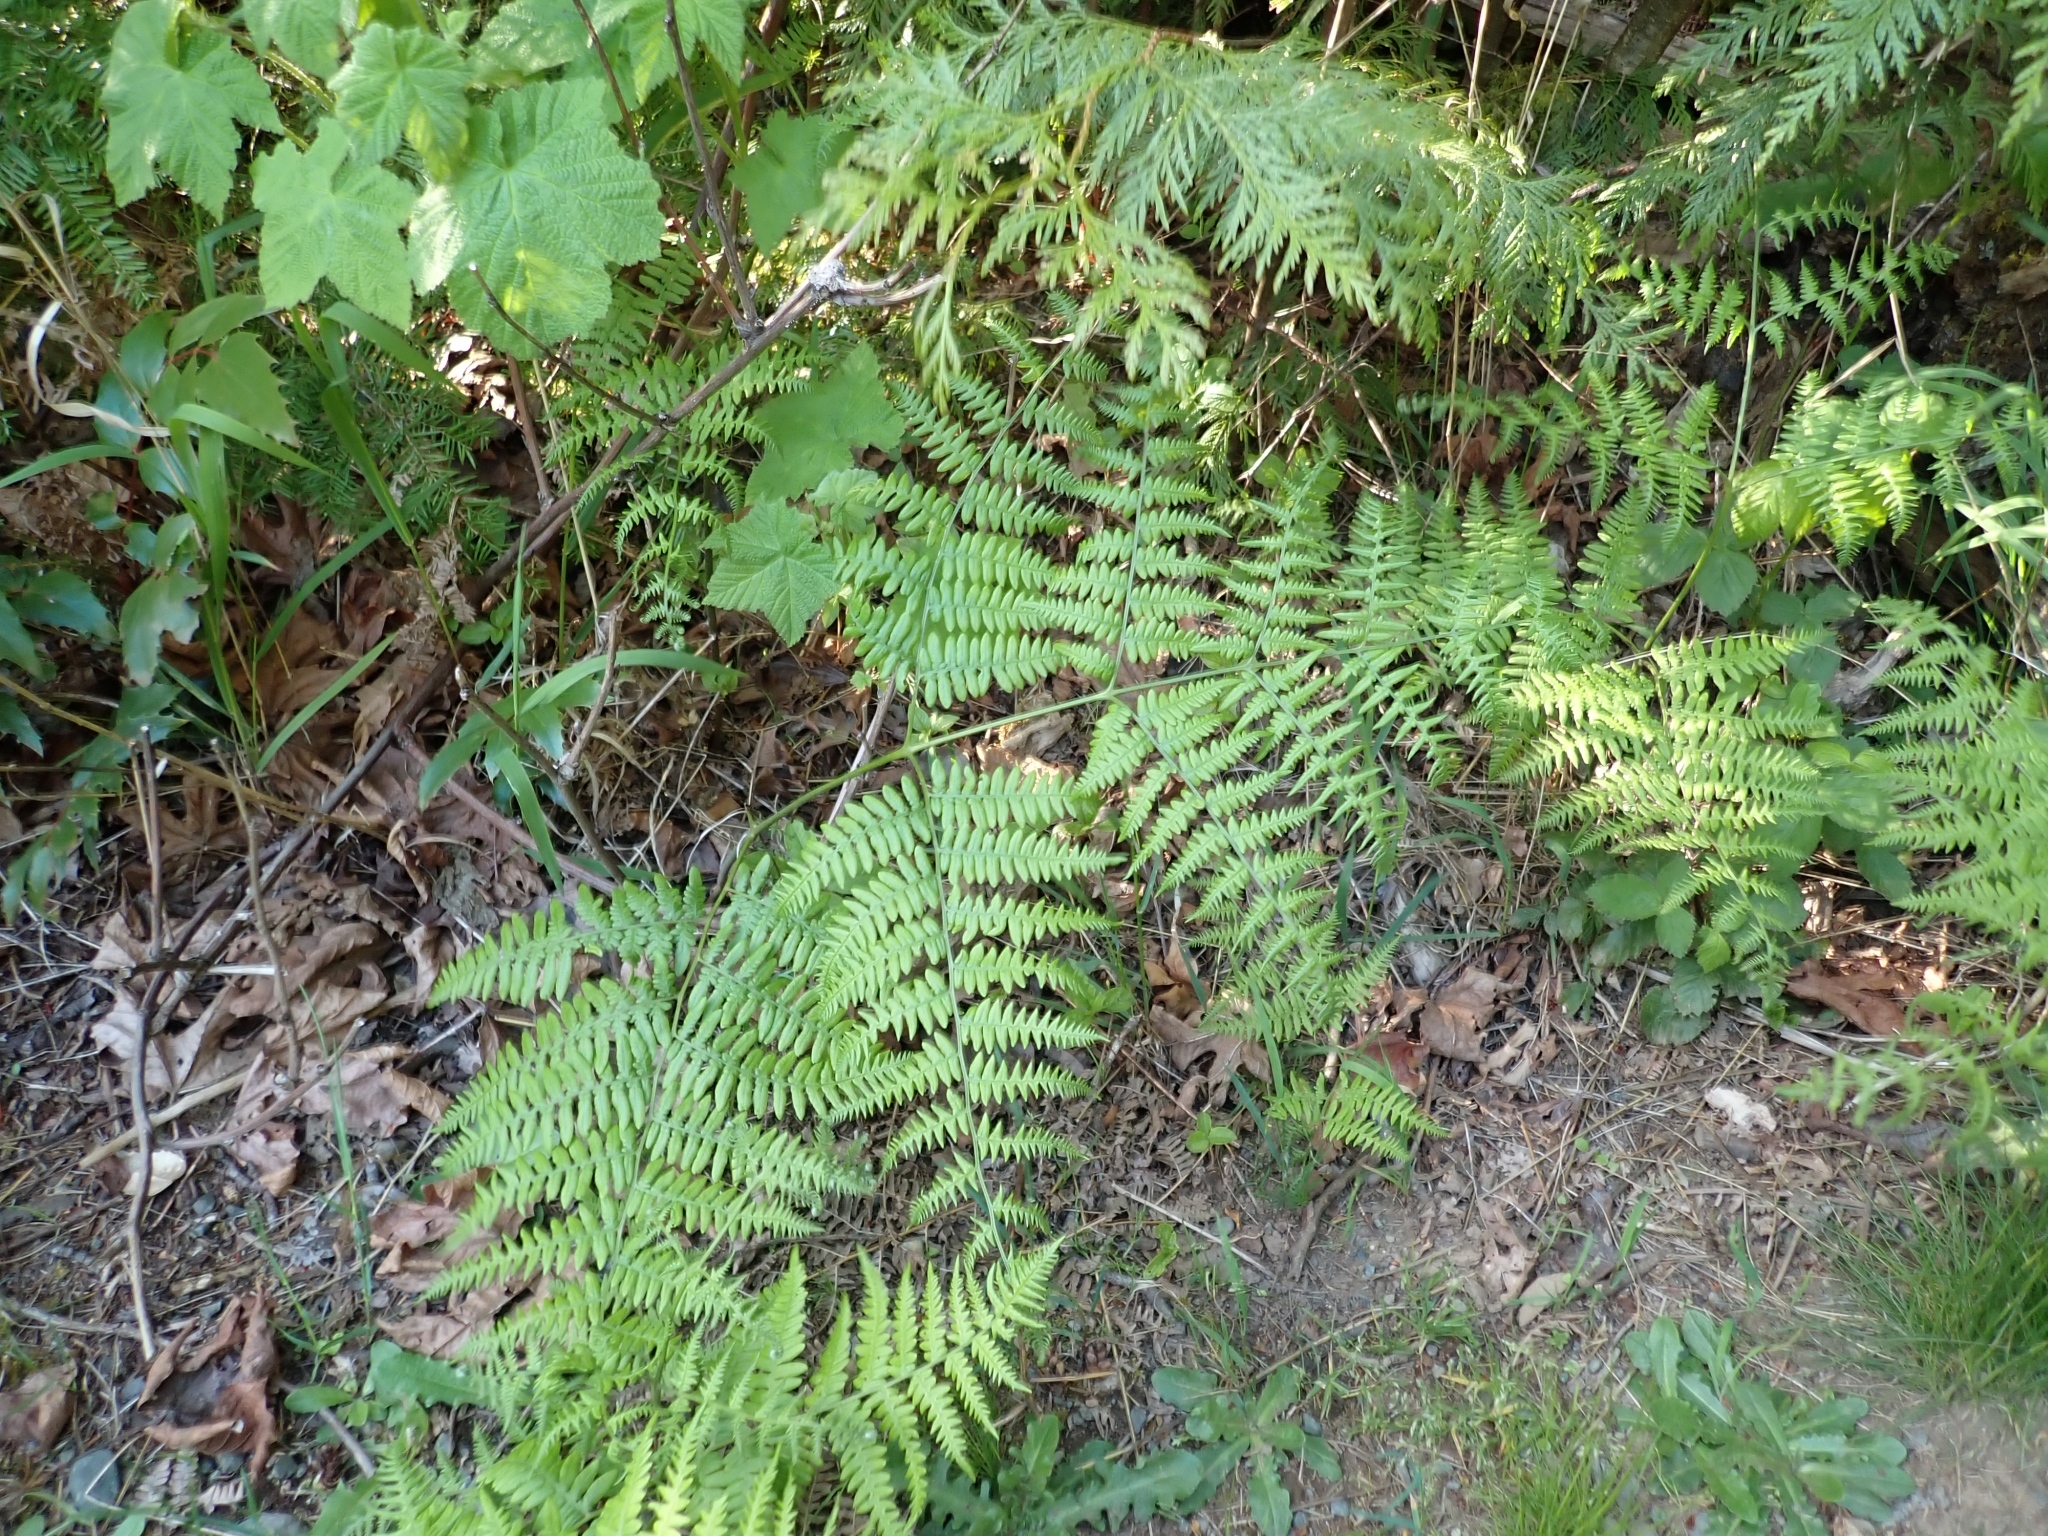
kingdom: Plantae
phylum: Tracheophyta
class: Polypodiopsida
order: Polypodiales
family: Dennstaedtiaceae
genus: Pteridium
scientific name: Pteridium aquilinum
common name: Bracken
